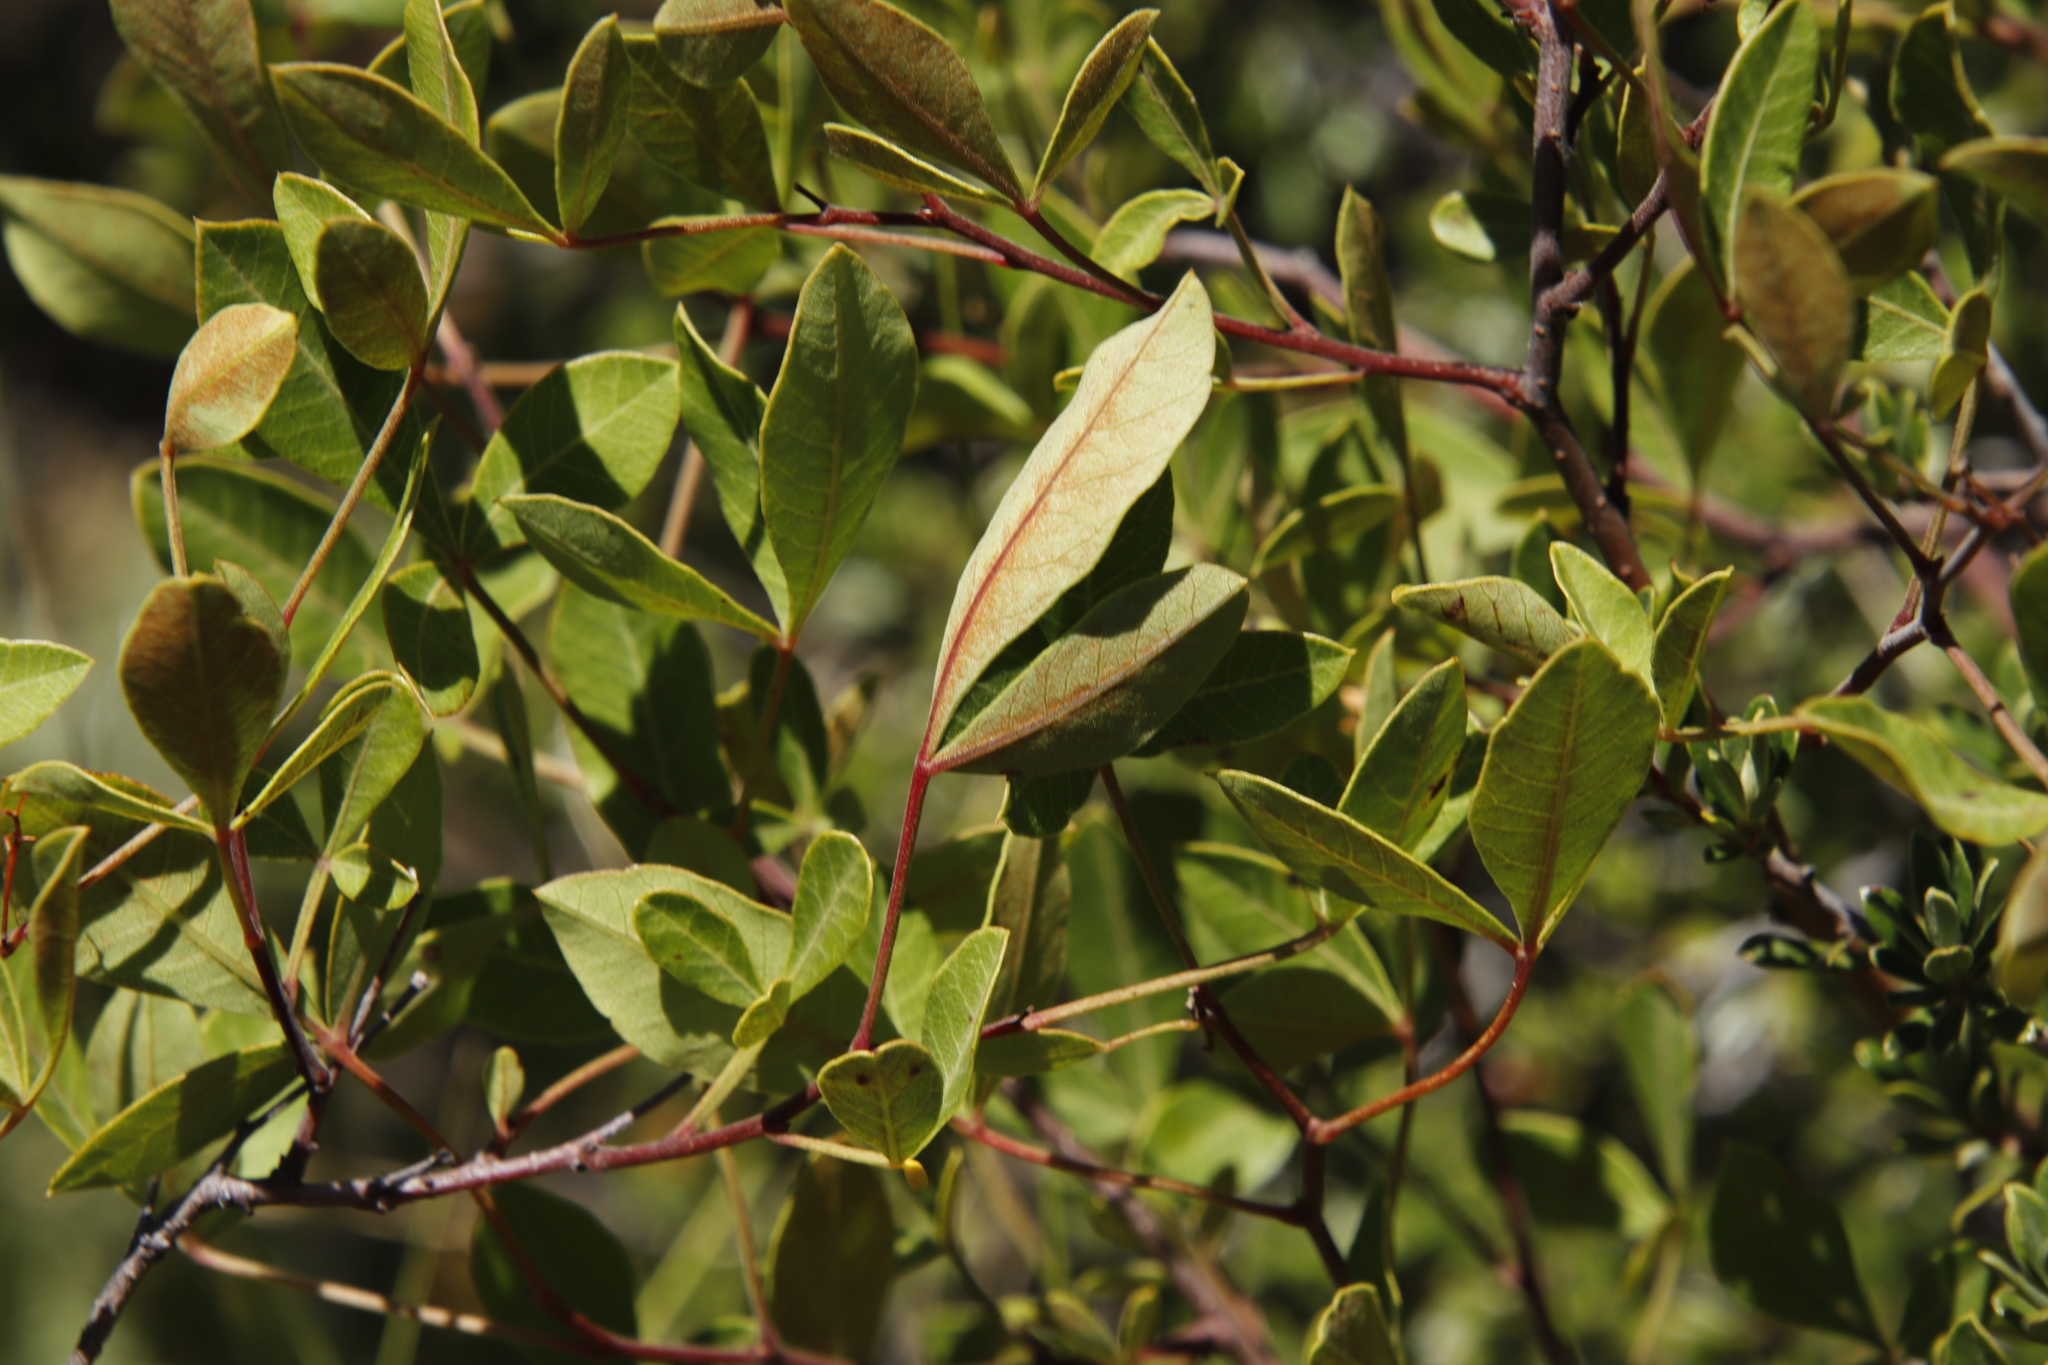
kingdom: Plantae
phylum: Tracheophyta
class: Magnoliopsida
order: Sapindales
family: Anacardiaceae
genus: Searsia
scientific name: Searsia divaricata
